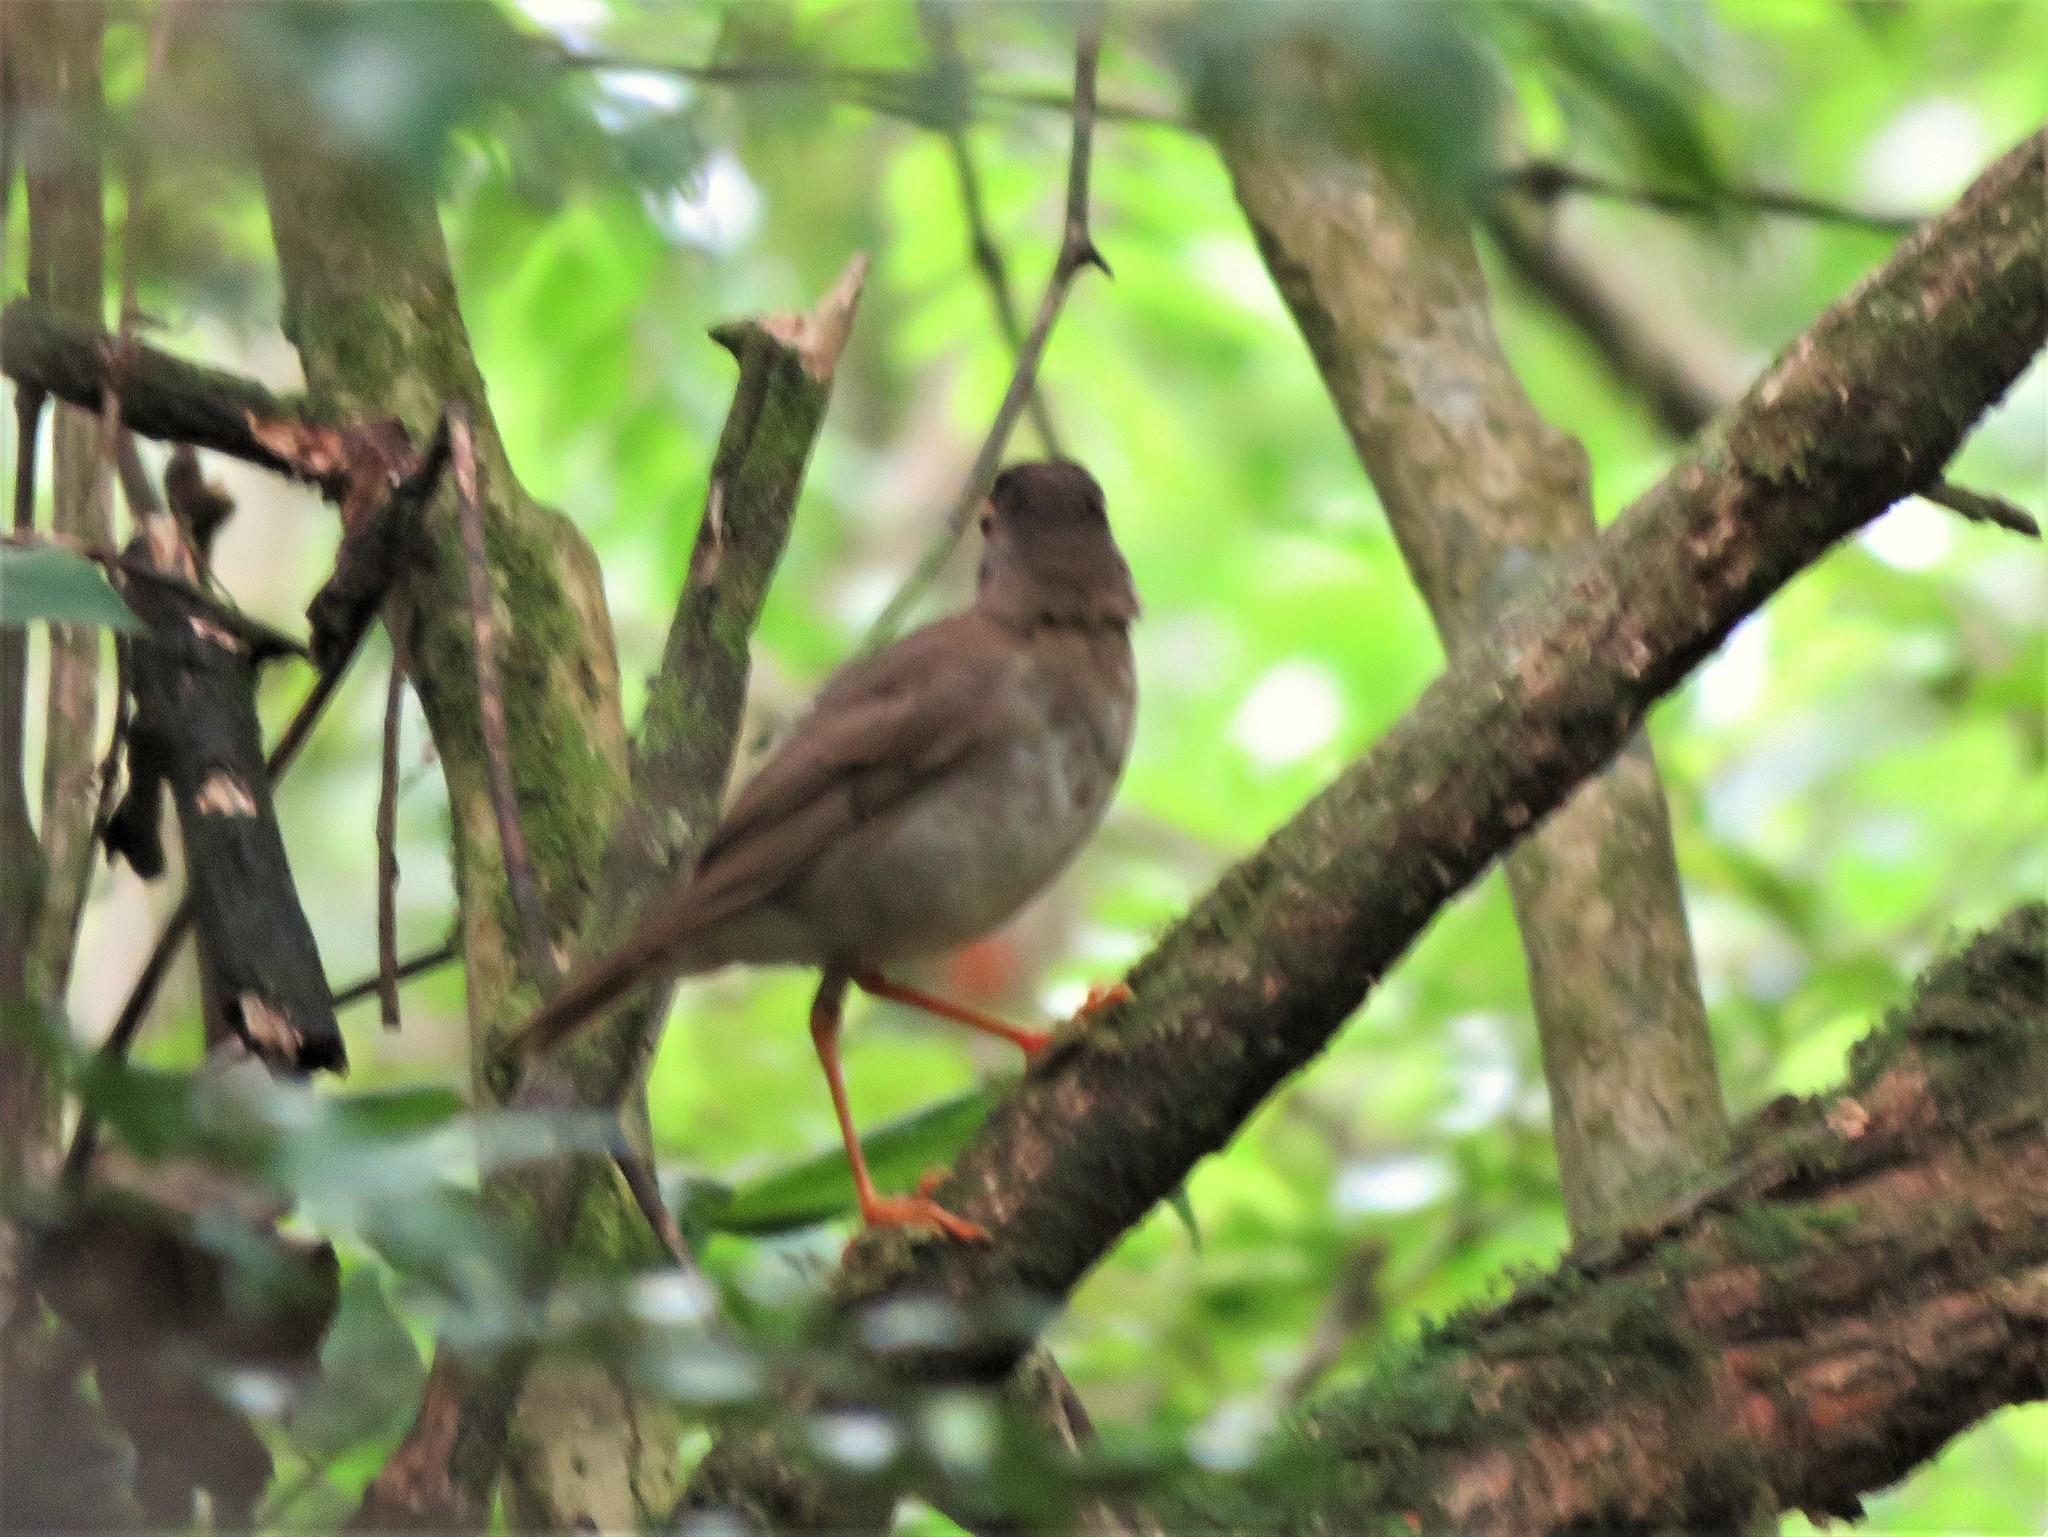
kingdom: Animalia
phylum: Chordata
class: Aves
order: Passeriformes
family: Turdidae
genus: Catharus
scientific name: Catharus mexicanus
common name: Black-headed nightingale-thrush
